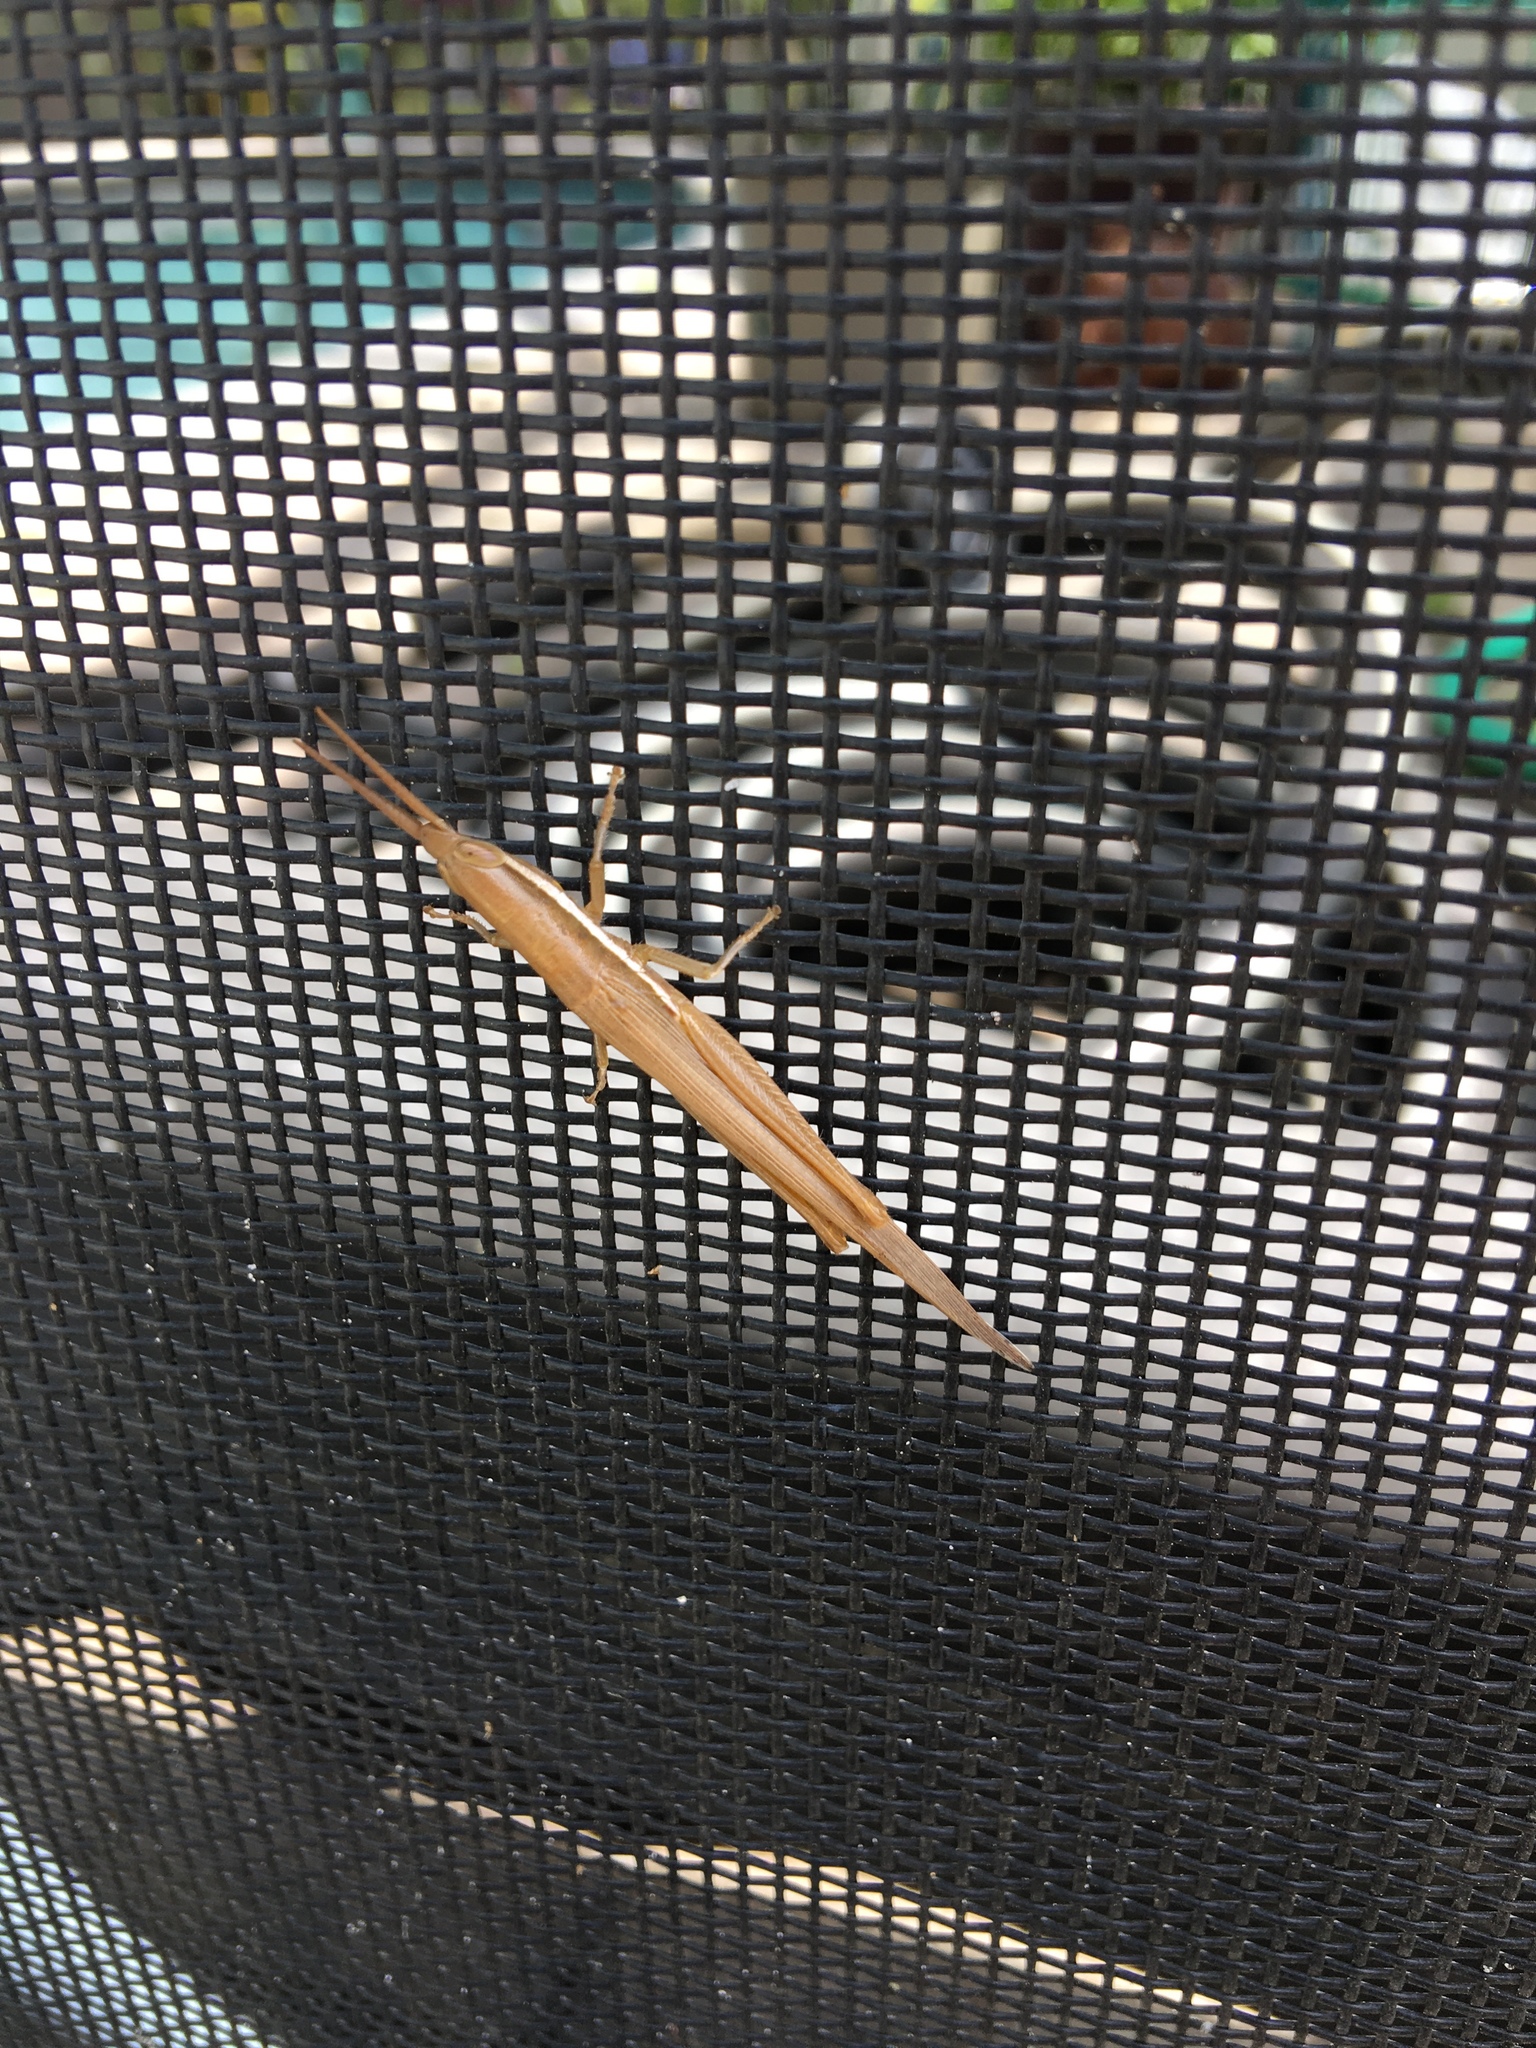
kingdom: Animalia
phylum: Arthropoda
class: Insecta
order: Orthoptera
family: Acrididae
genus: Leptysma
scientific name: Leptysma marginicollis
